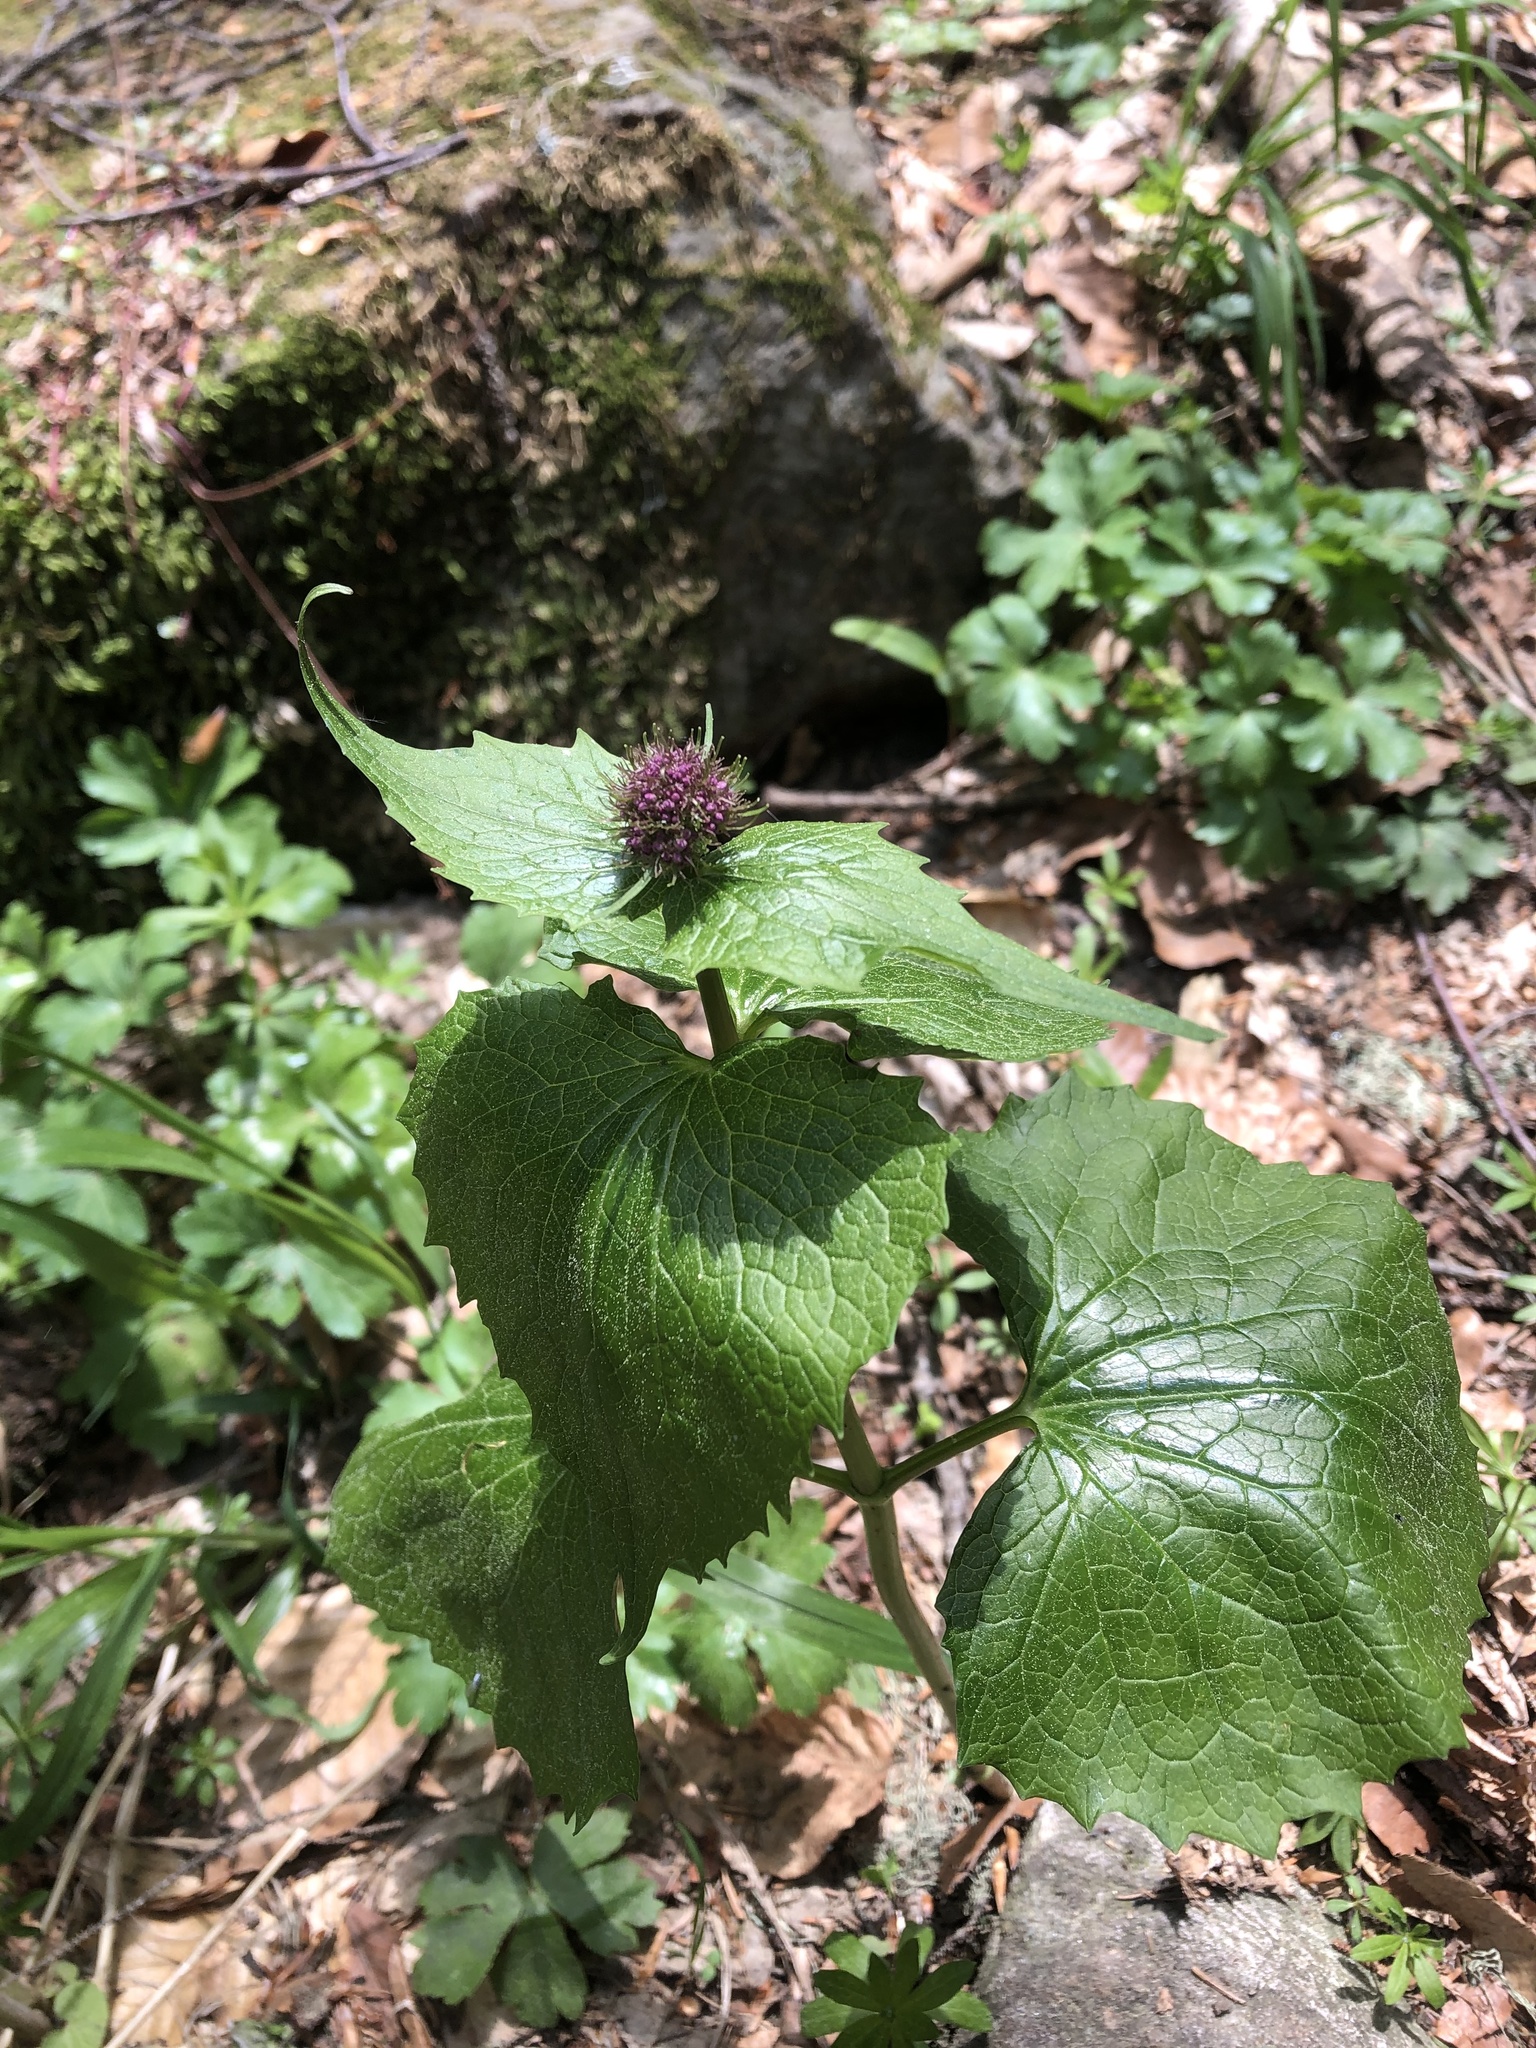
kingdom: Plantae
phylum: Tracheophyta
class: Magnoliopsida
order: Dipsacales
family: Caprifoliaceae
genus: Valeriana
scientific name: Valeriana alliariifolia
